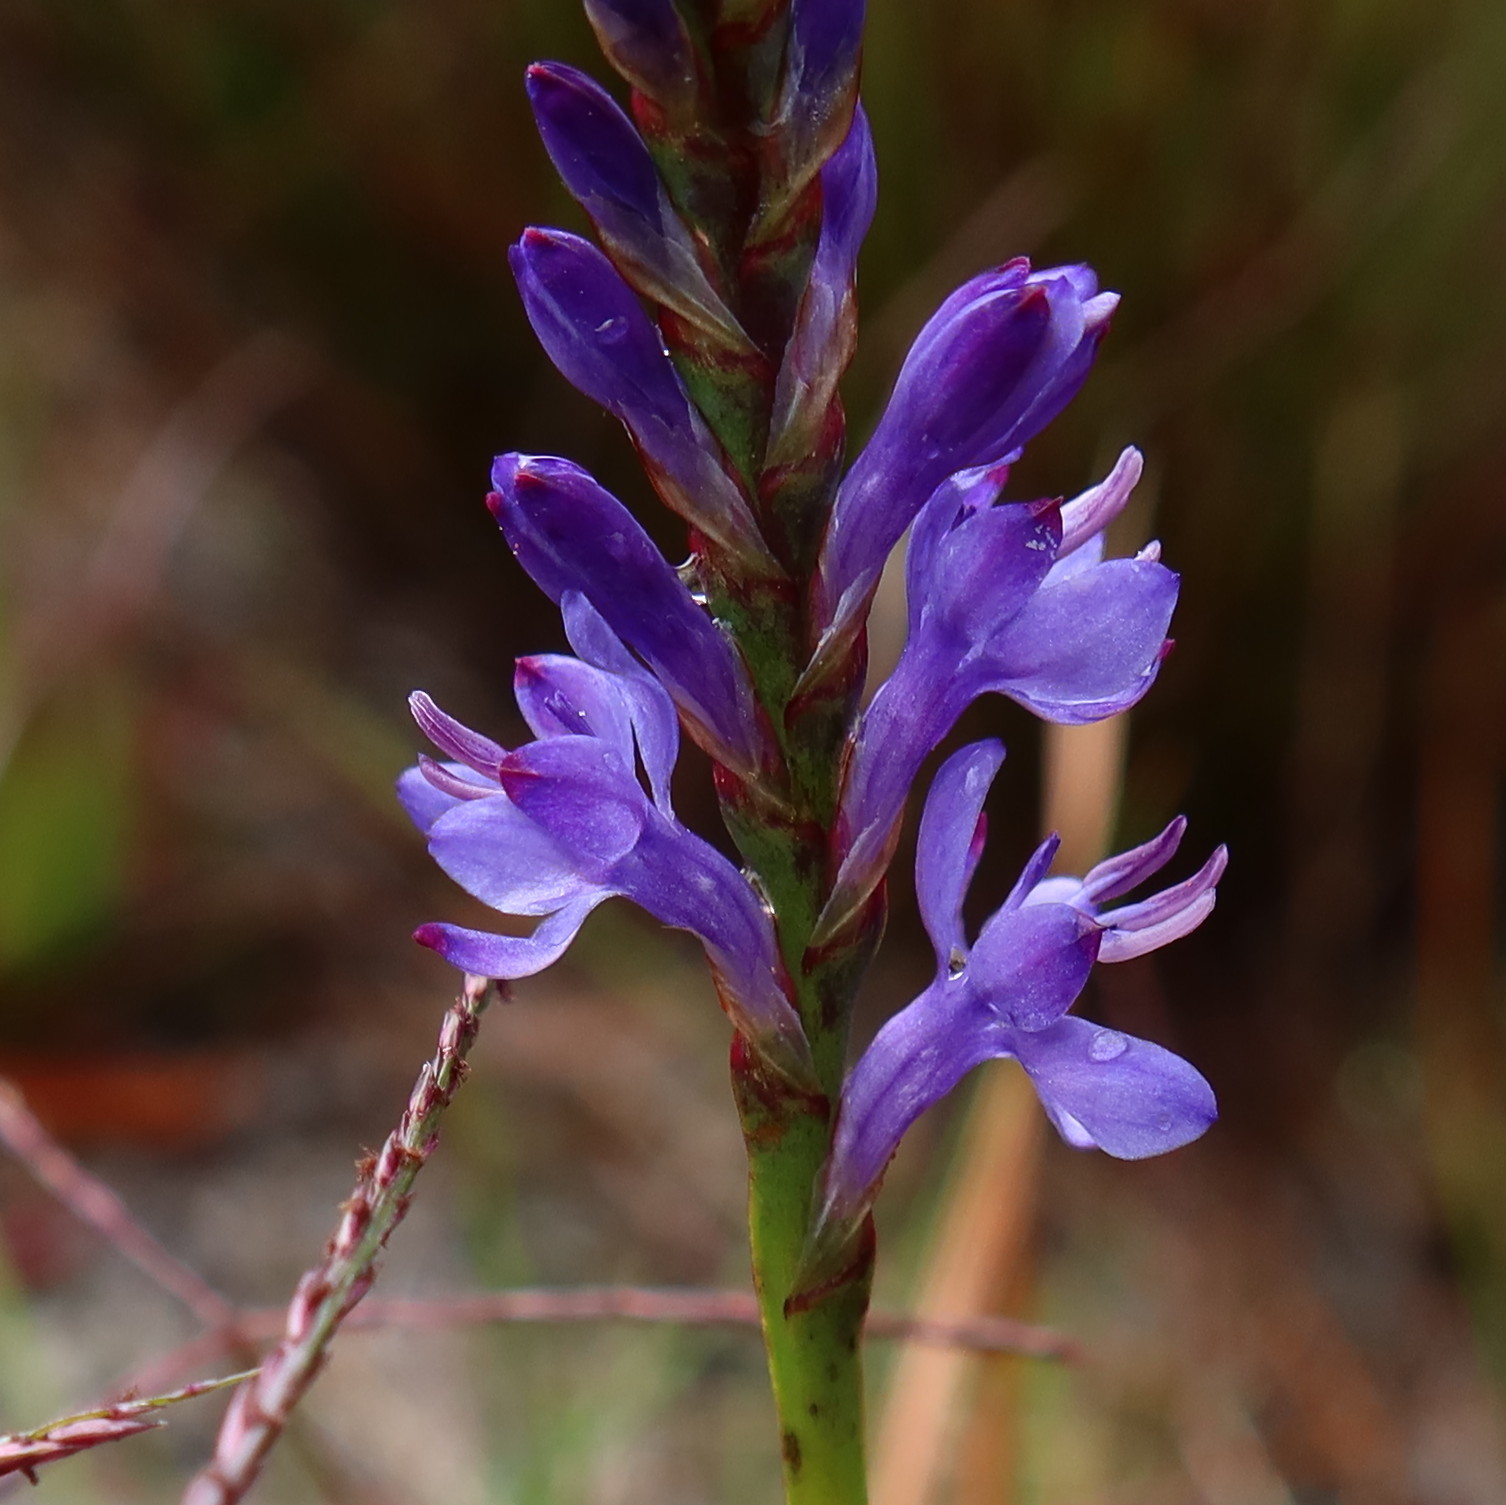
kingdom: Plantae
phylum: Tracheophyta
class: Liliopsida
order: Asparagales
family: Iridaceae
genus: Micranthus
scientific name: Micranthus alopecuroides
